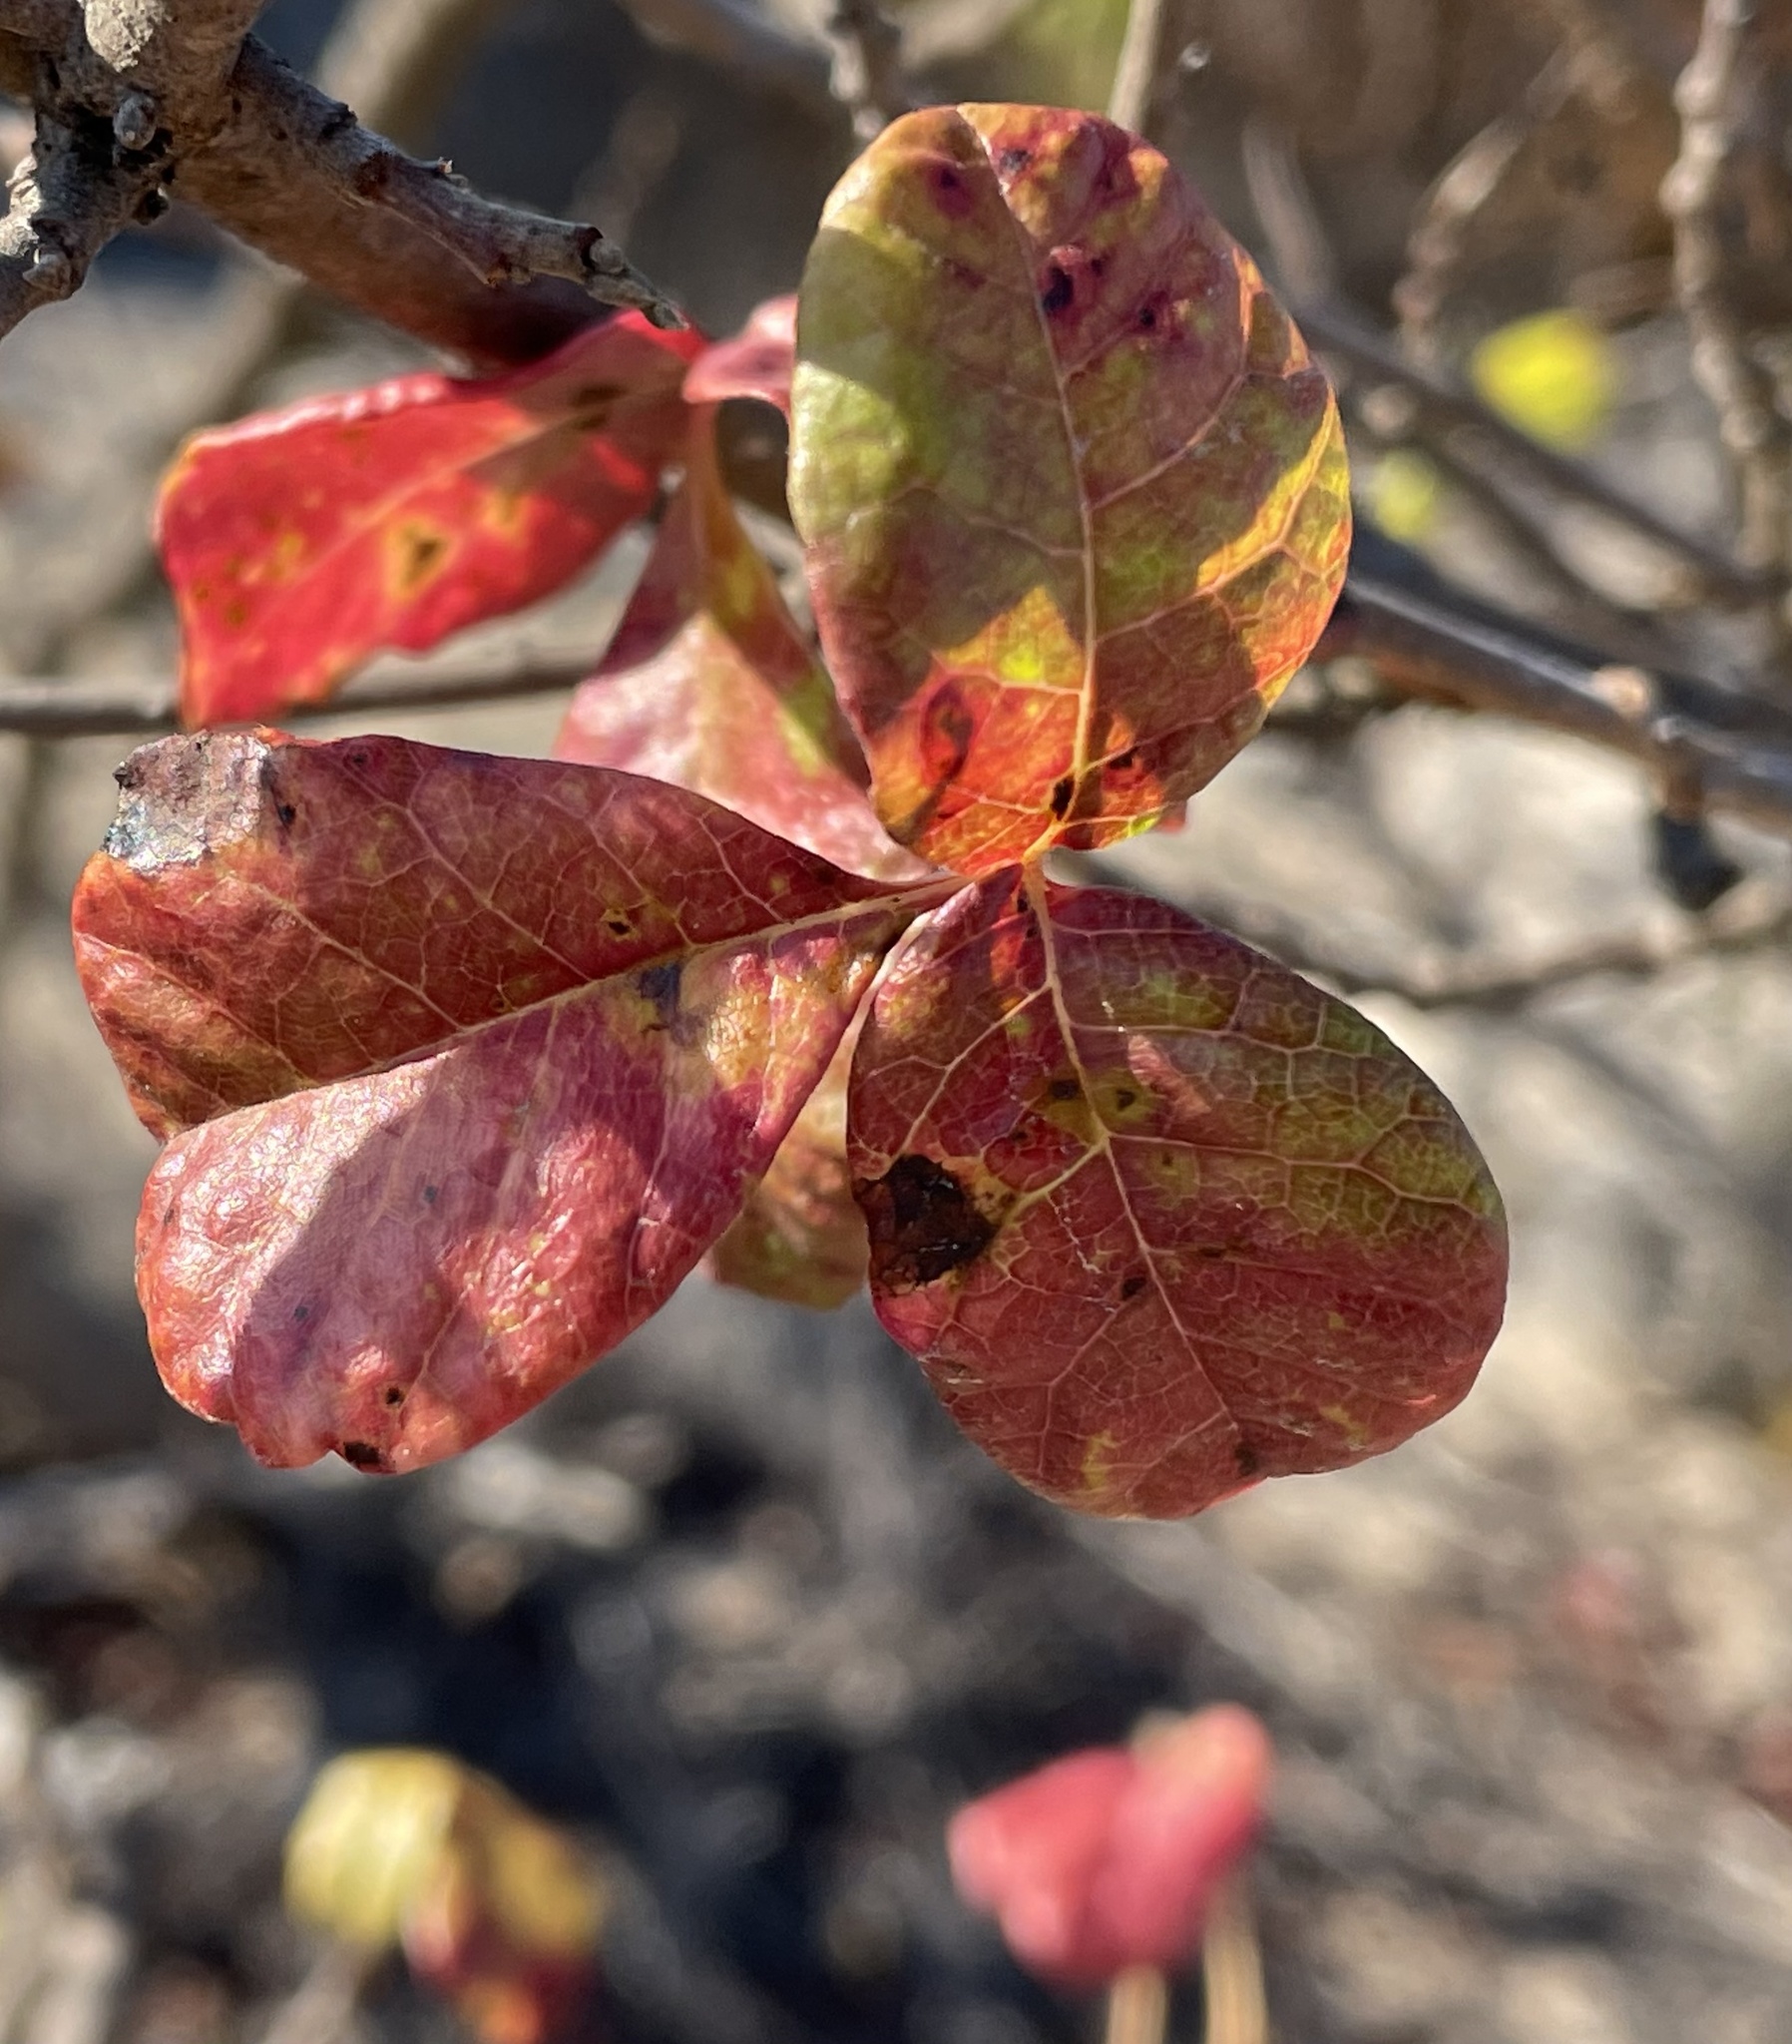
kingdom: Plantae
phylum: Tracheophyta
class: Magnoliopsida
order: Sapindales
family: Anacardiaceae
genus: Toxicodendron
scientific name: Toxicodendron diversilobum
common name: Pacific poison-oak
